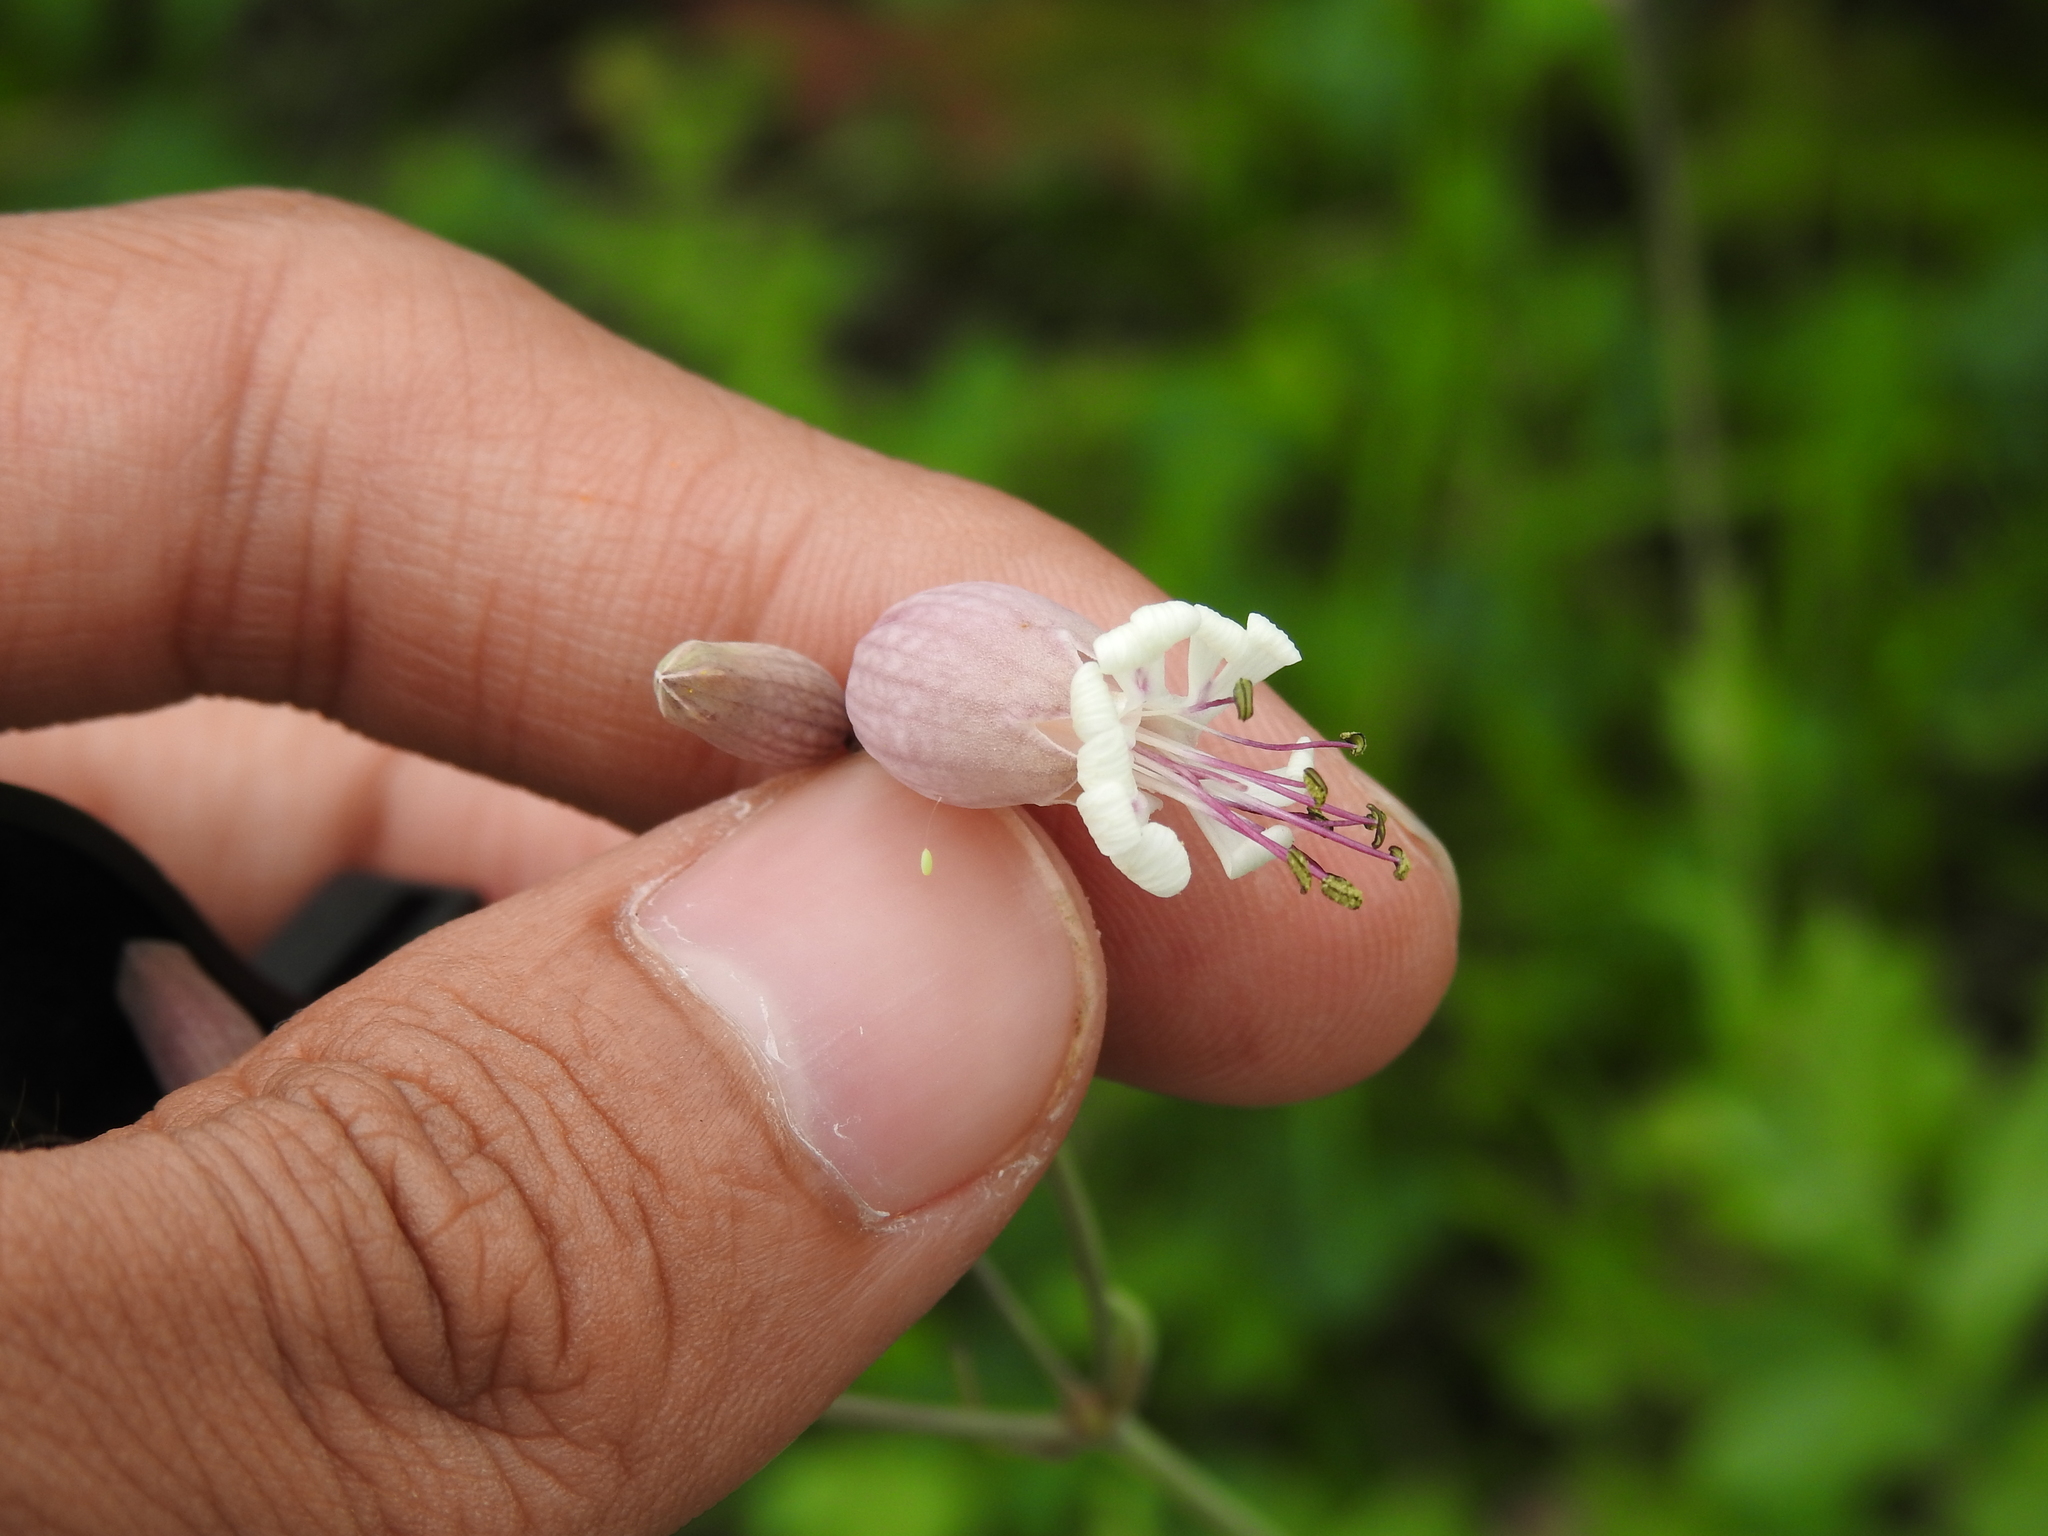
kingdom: Plantae
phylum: Tracheophyta
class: Magnoliopsida
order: Caryophyllales
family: Caryophyllaceae
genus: Silene
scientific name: Silene vulgaris
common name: Bladder campion
